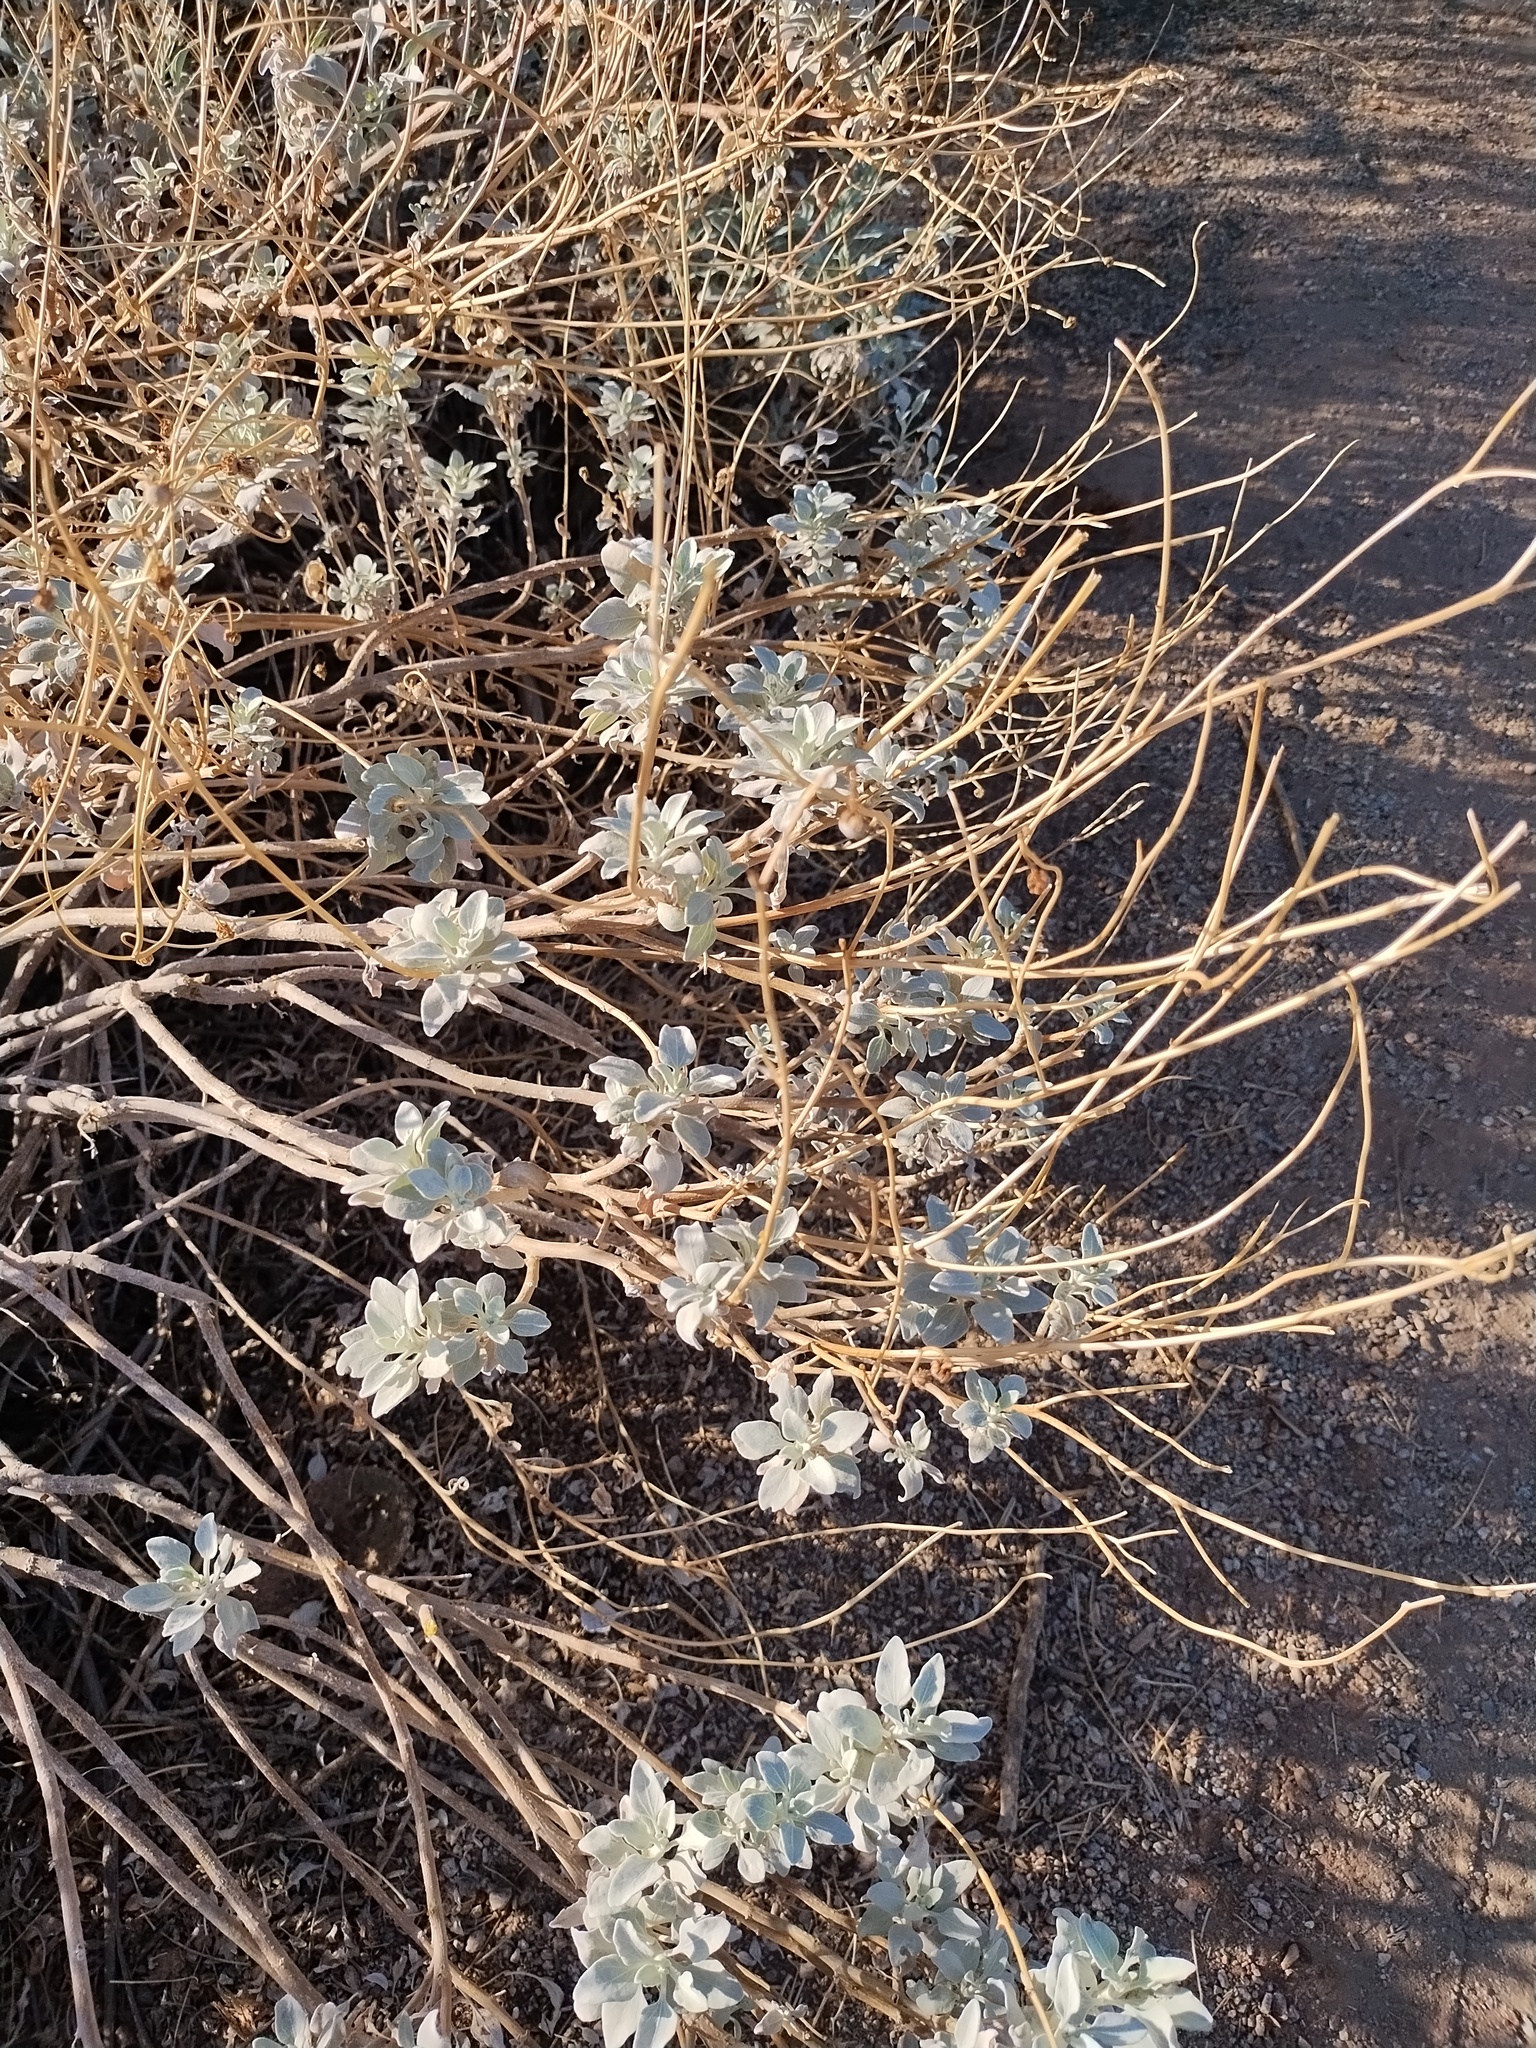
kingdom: Plantae
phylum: Tracheophyta
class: Magnoliopsida
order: Asterales
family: Asteraceae
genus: Encelia
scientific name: Encelia farinosa
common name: Brittlebush
